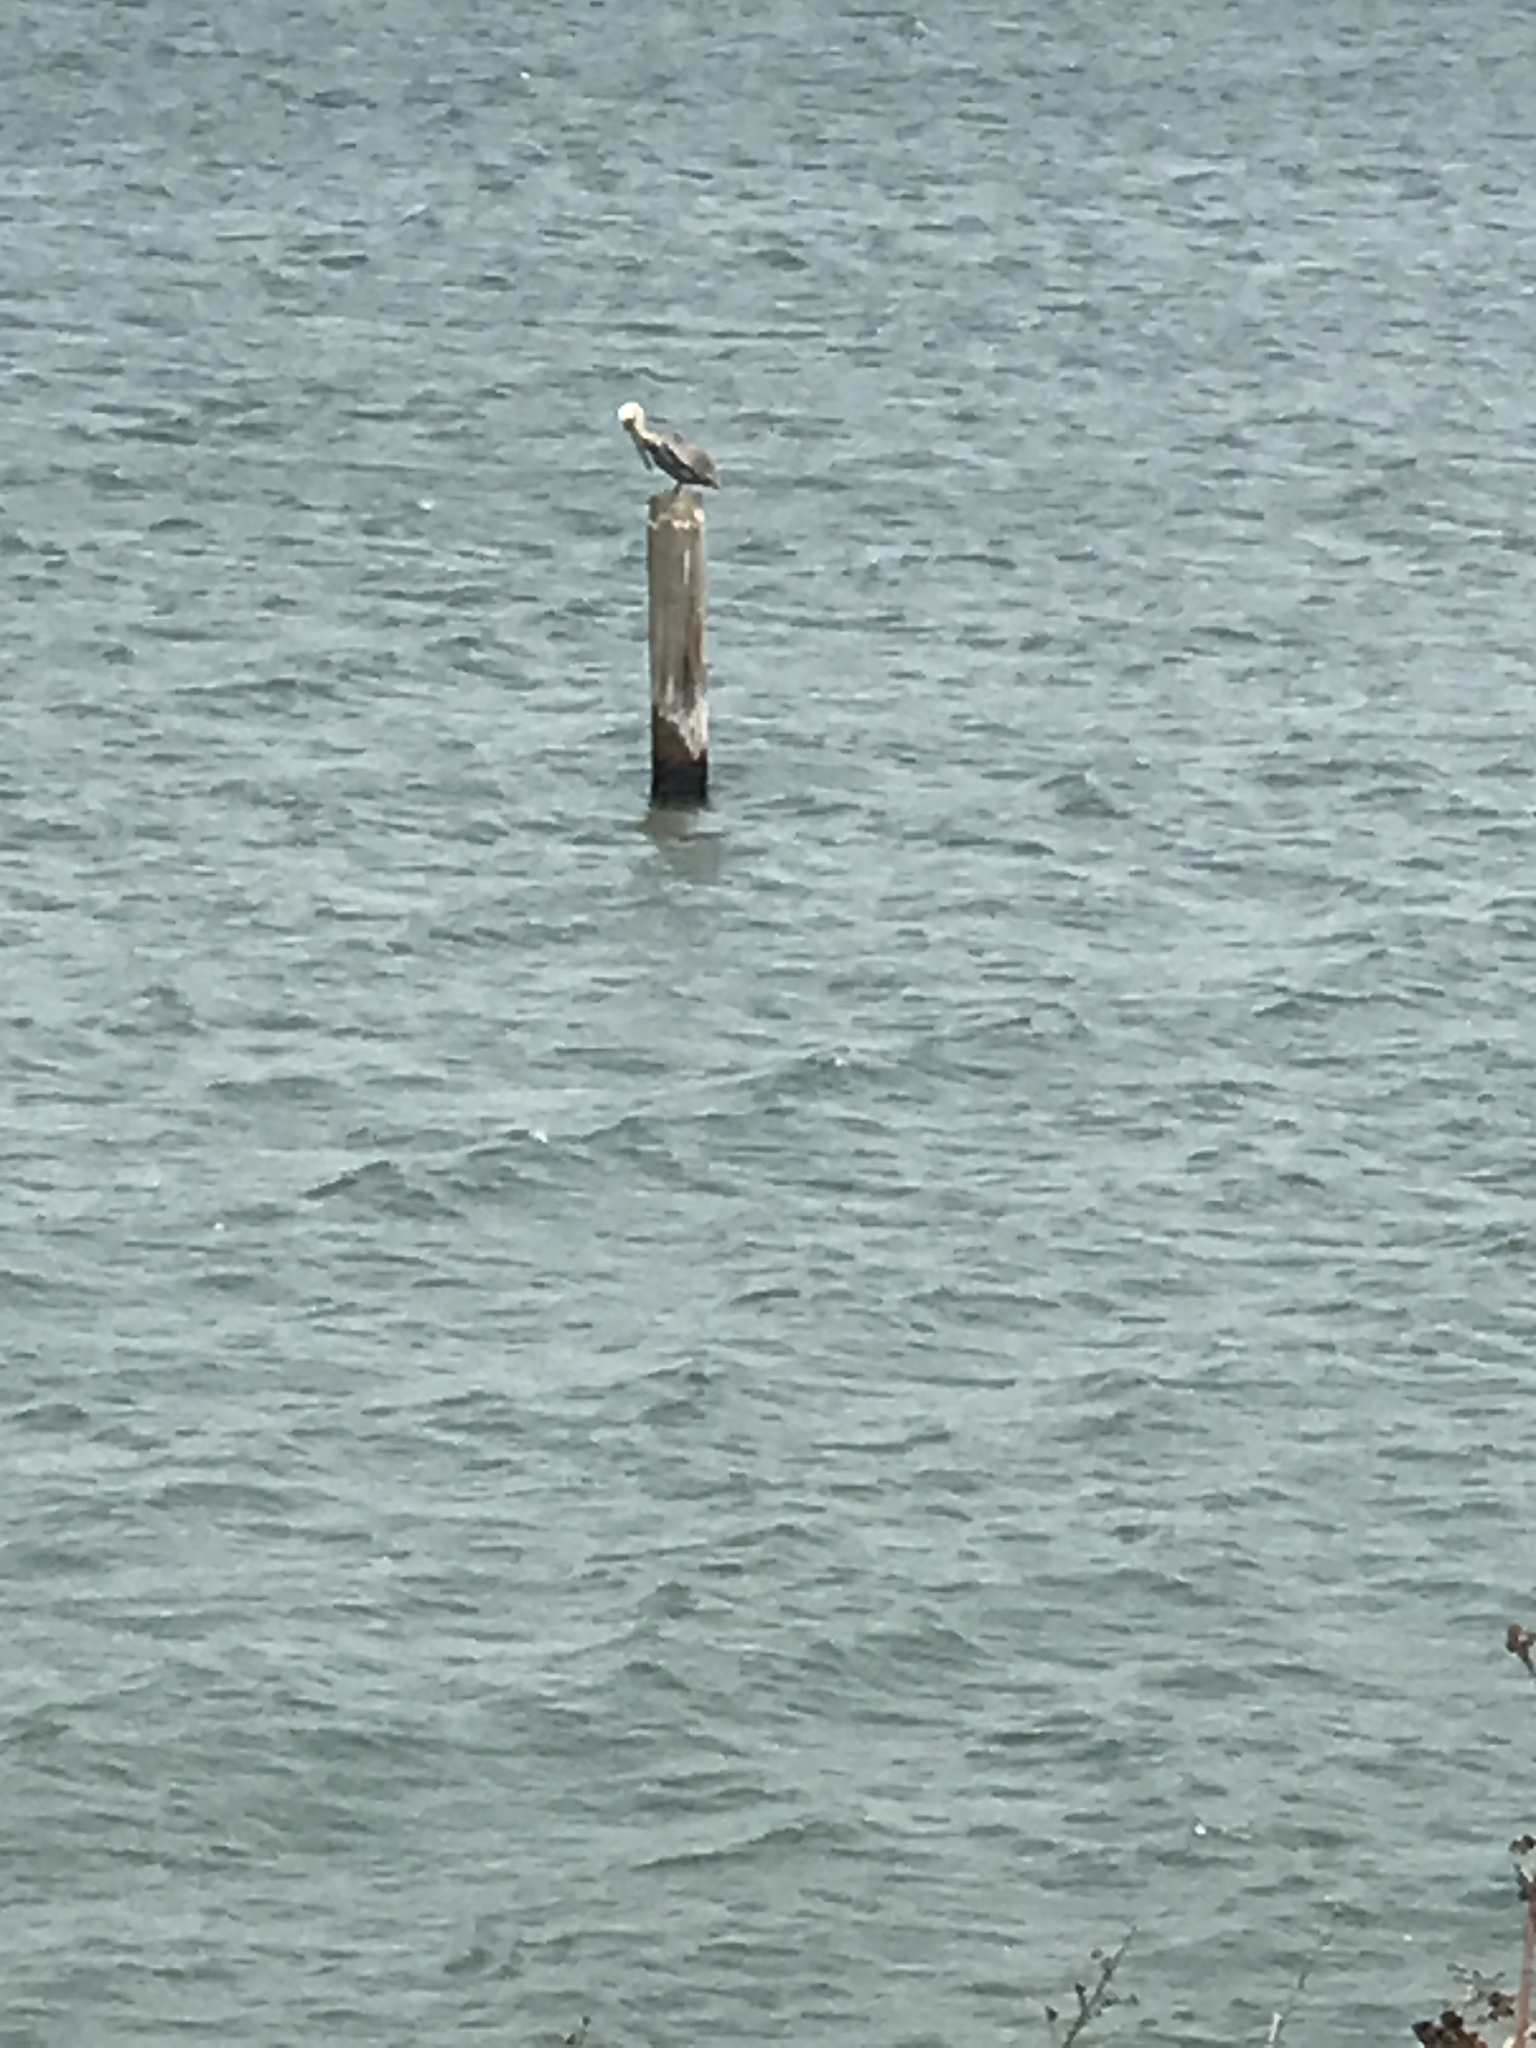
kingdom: Animalia
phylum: Chordata
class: Aves
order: Pelecaniformes
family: Pelecanidae
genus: Pelecanus
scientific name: Pelecanus occidentalis
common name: Brown pelican
